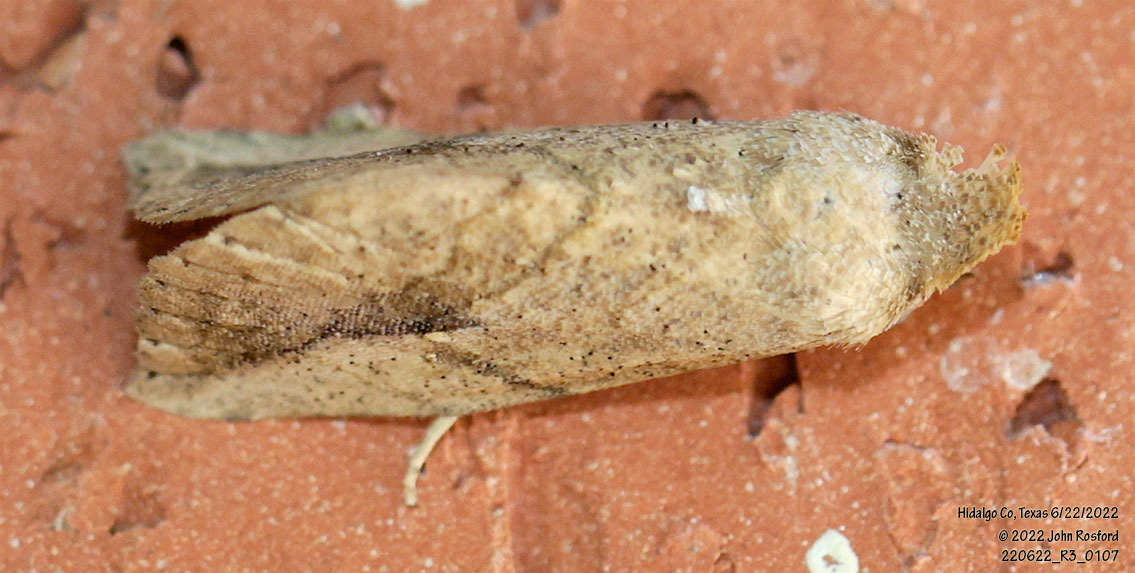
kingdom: Animalia
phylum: Arthropoda
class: Insecta
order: Lepidoptera
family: Erebidae
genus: Isogona
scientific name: Isogona snowi
